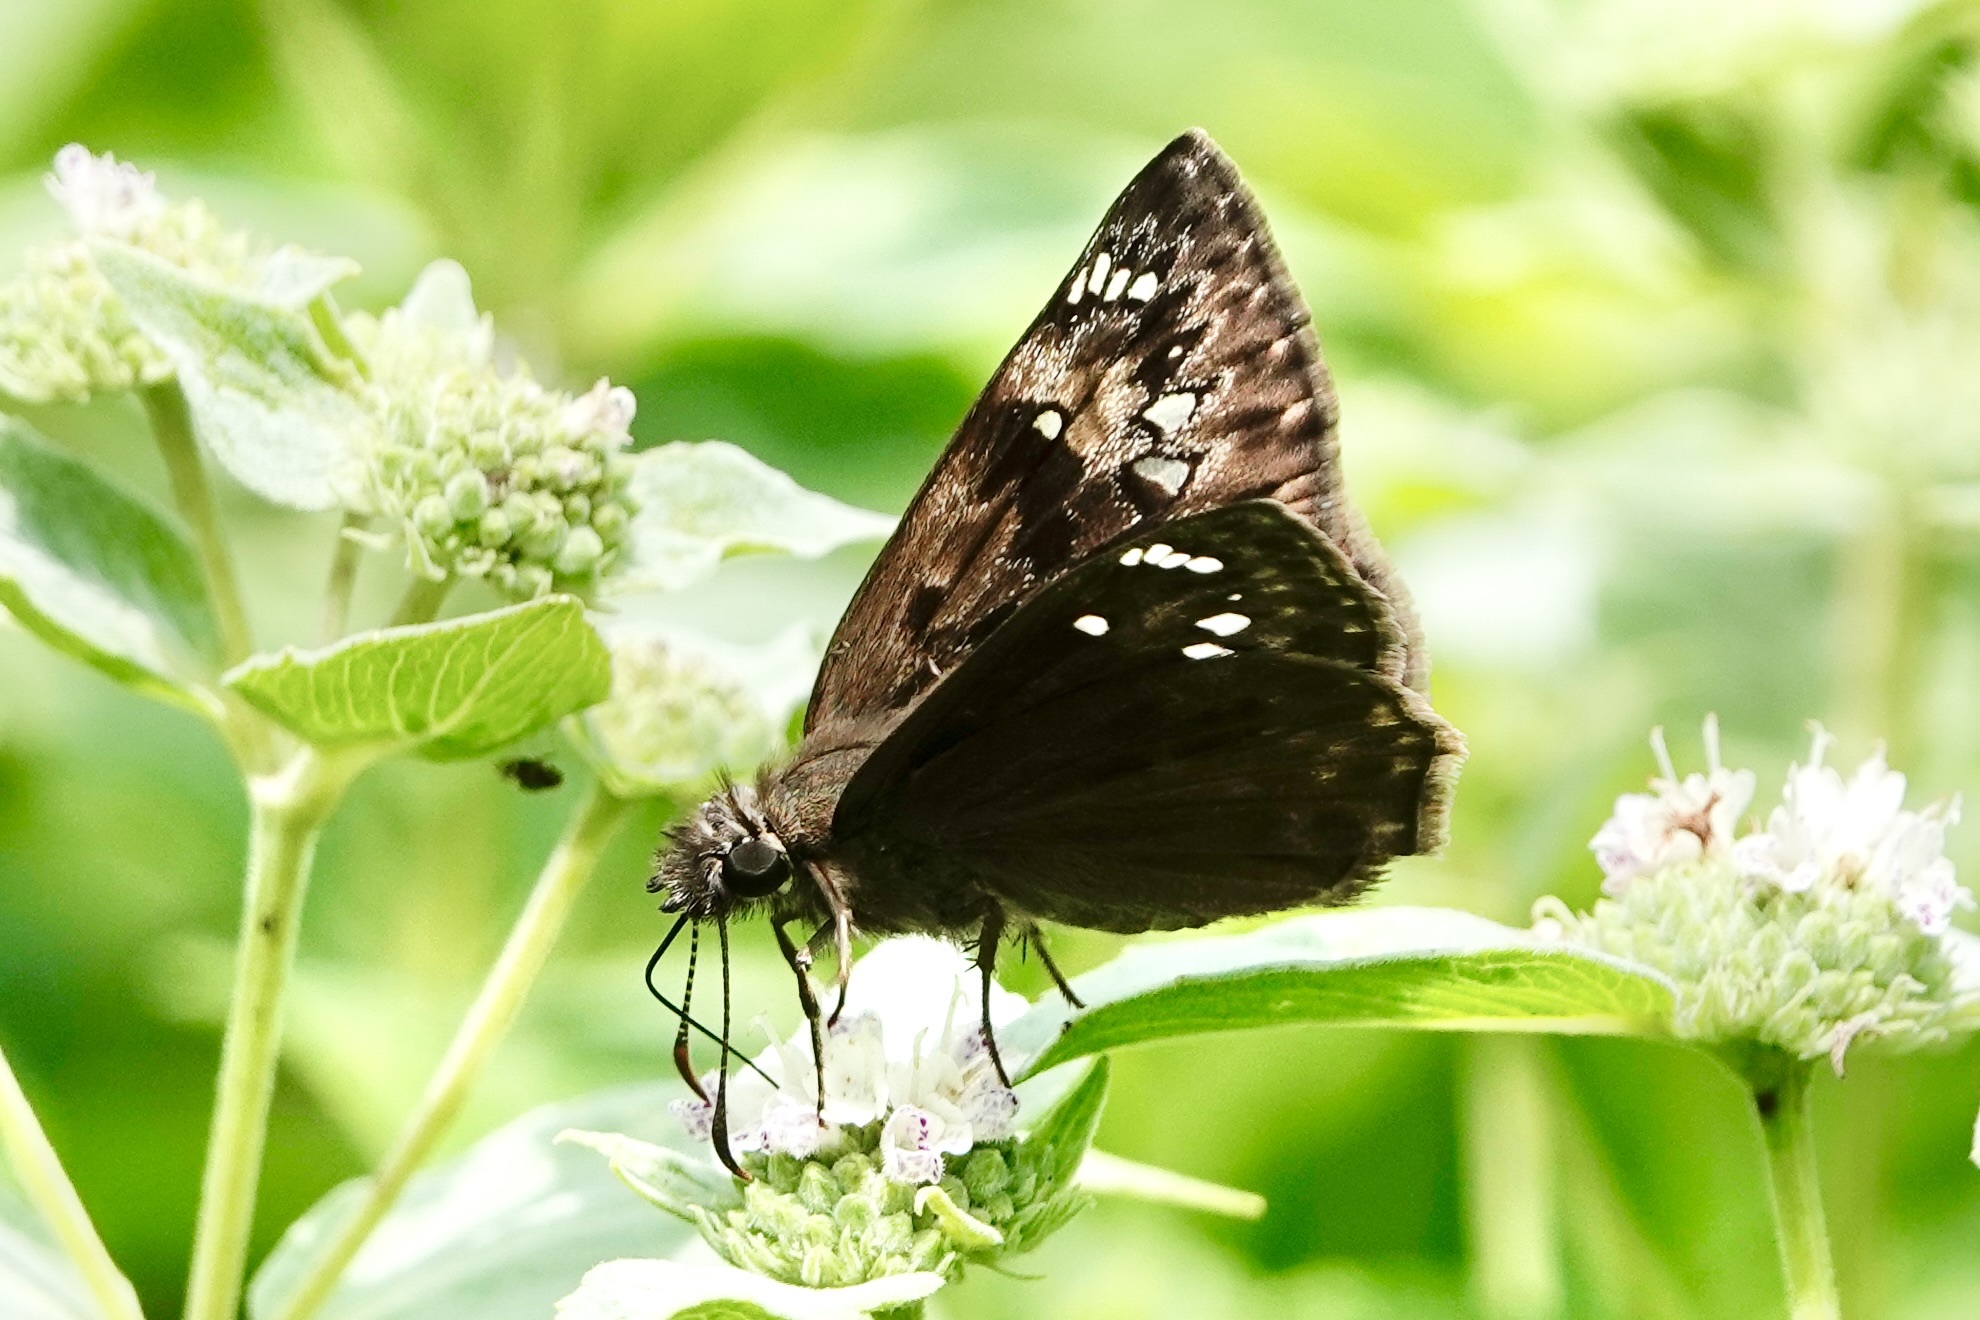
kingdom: Animalia
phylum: Arthropoda
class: Insecta
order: Lepidoptera
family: Hesperiidae
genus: Erynnis
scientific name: Erynnis horatius
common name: Horace's duskywing
